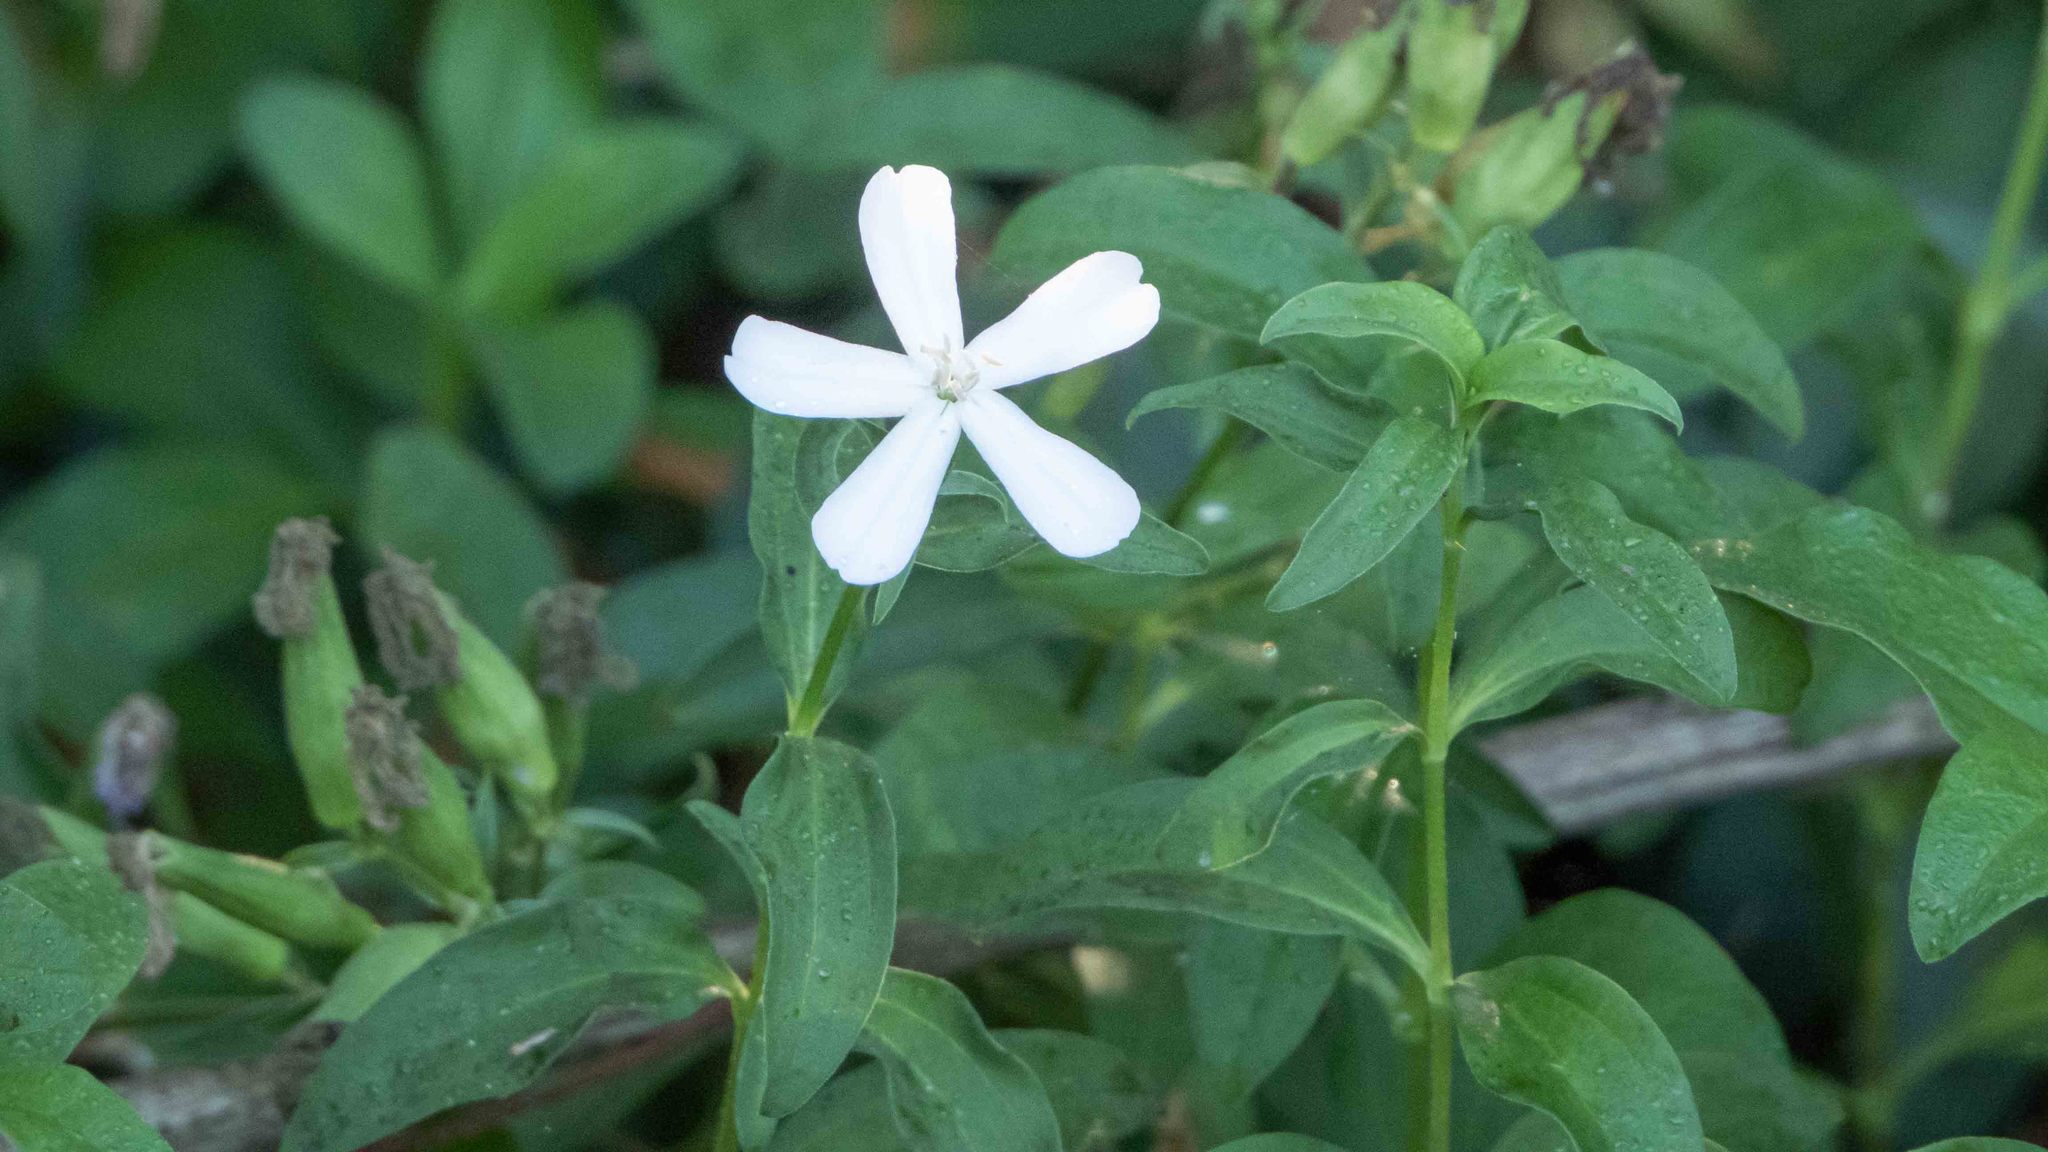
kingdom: Plantae
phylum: Tracheophyta
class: Magnoliopsida
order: Caryophyllales
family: Caryophyllaceae
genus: Saponaria
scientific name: Saponaria officinalis
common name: Soapwort
